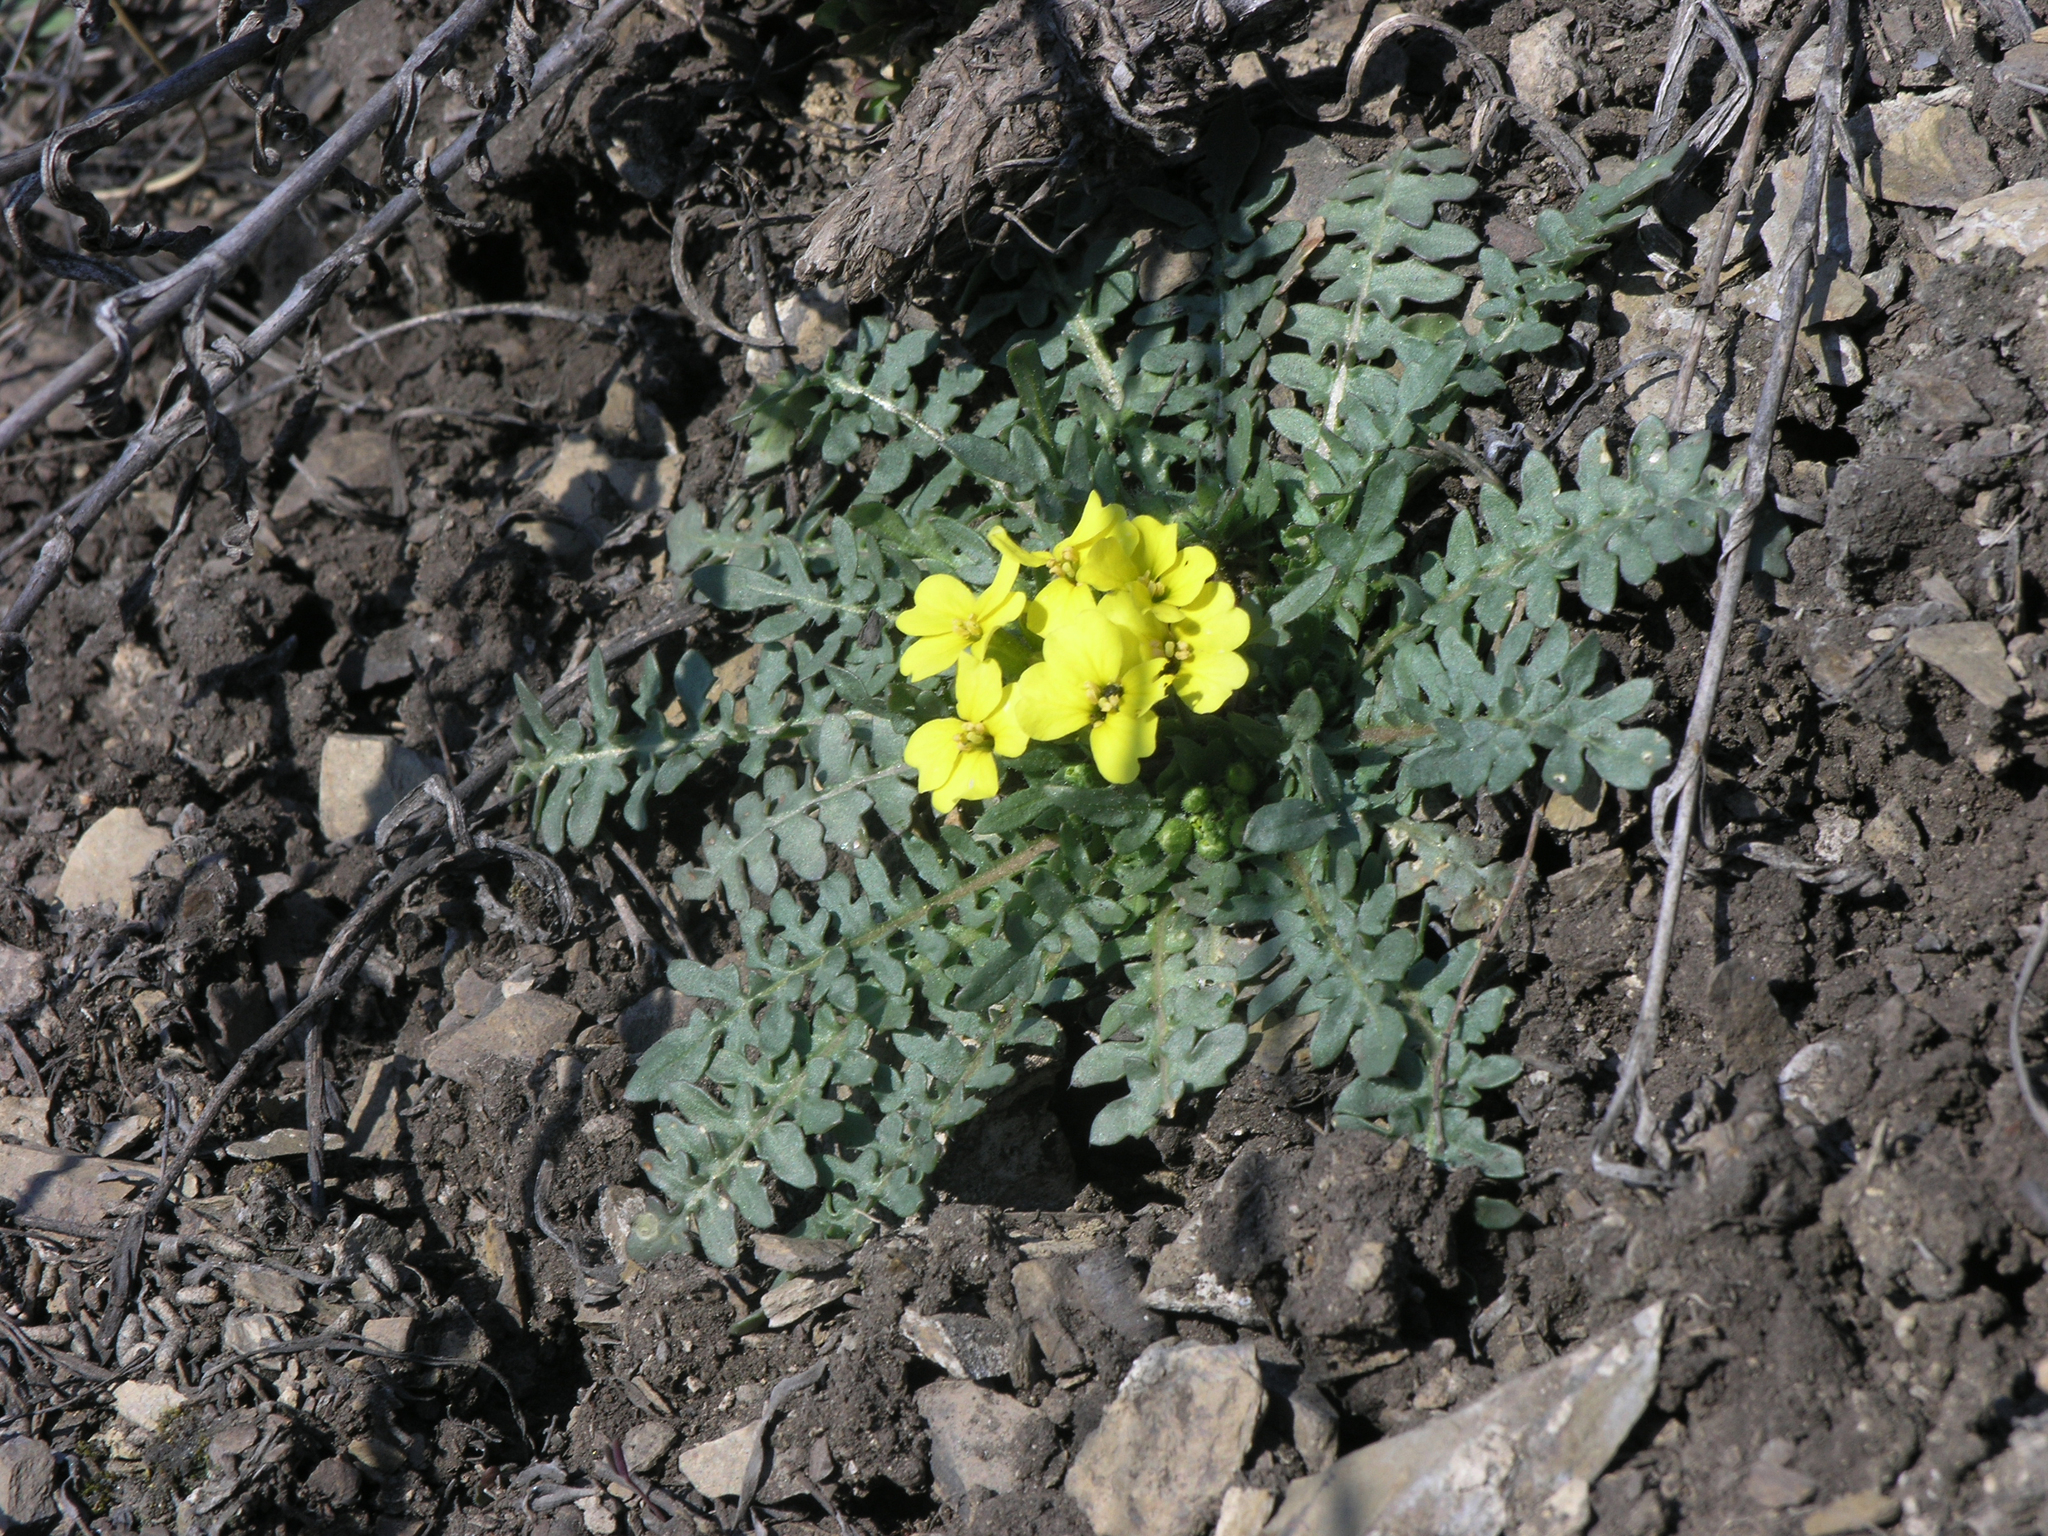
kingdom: Plantae
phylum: Tracheophyta
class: Magnoliopsida
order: Brassicales
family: Brassicaceae
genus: Chorispora
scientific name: Chorispora sibirica
